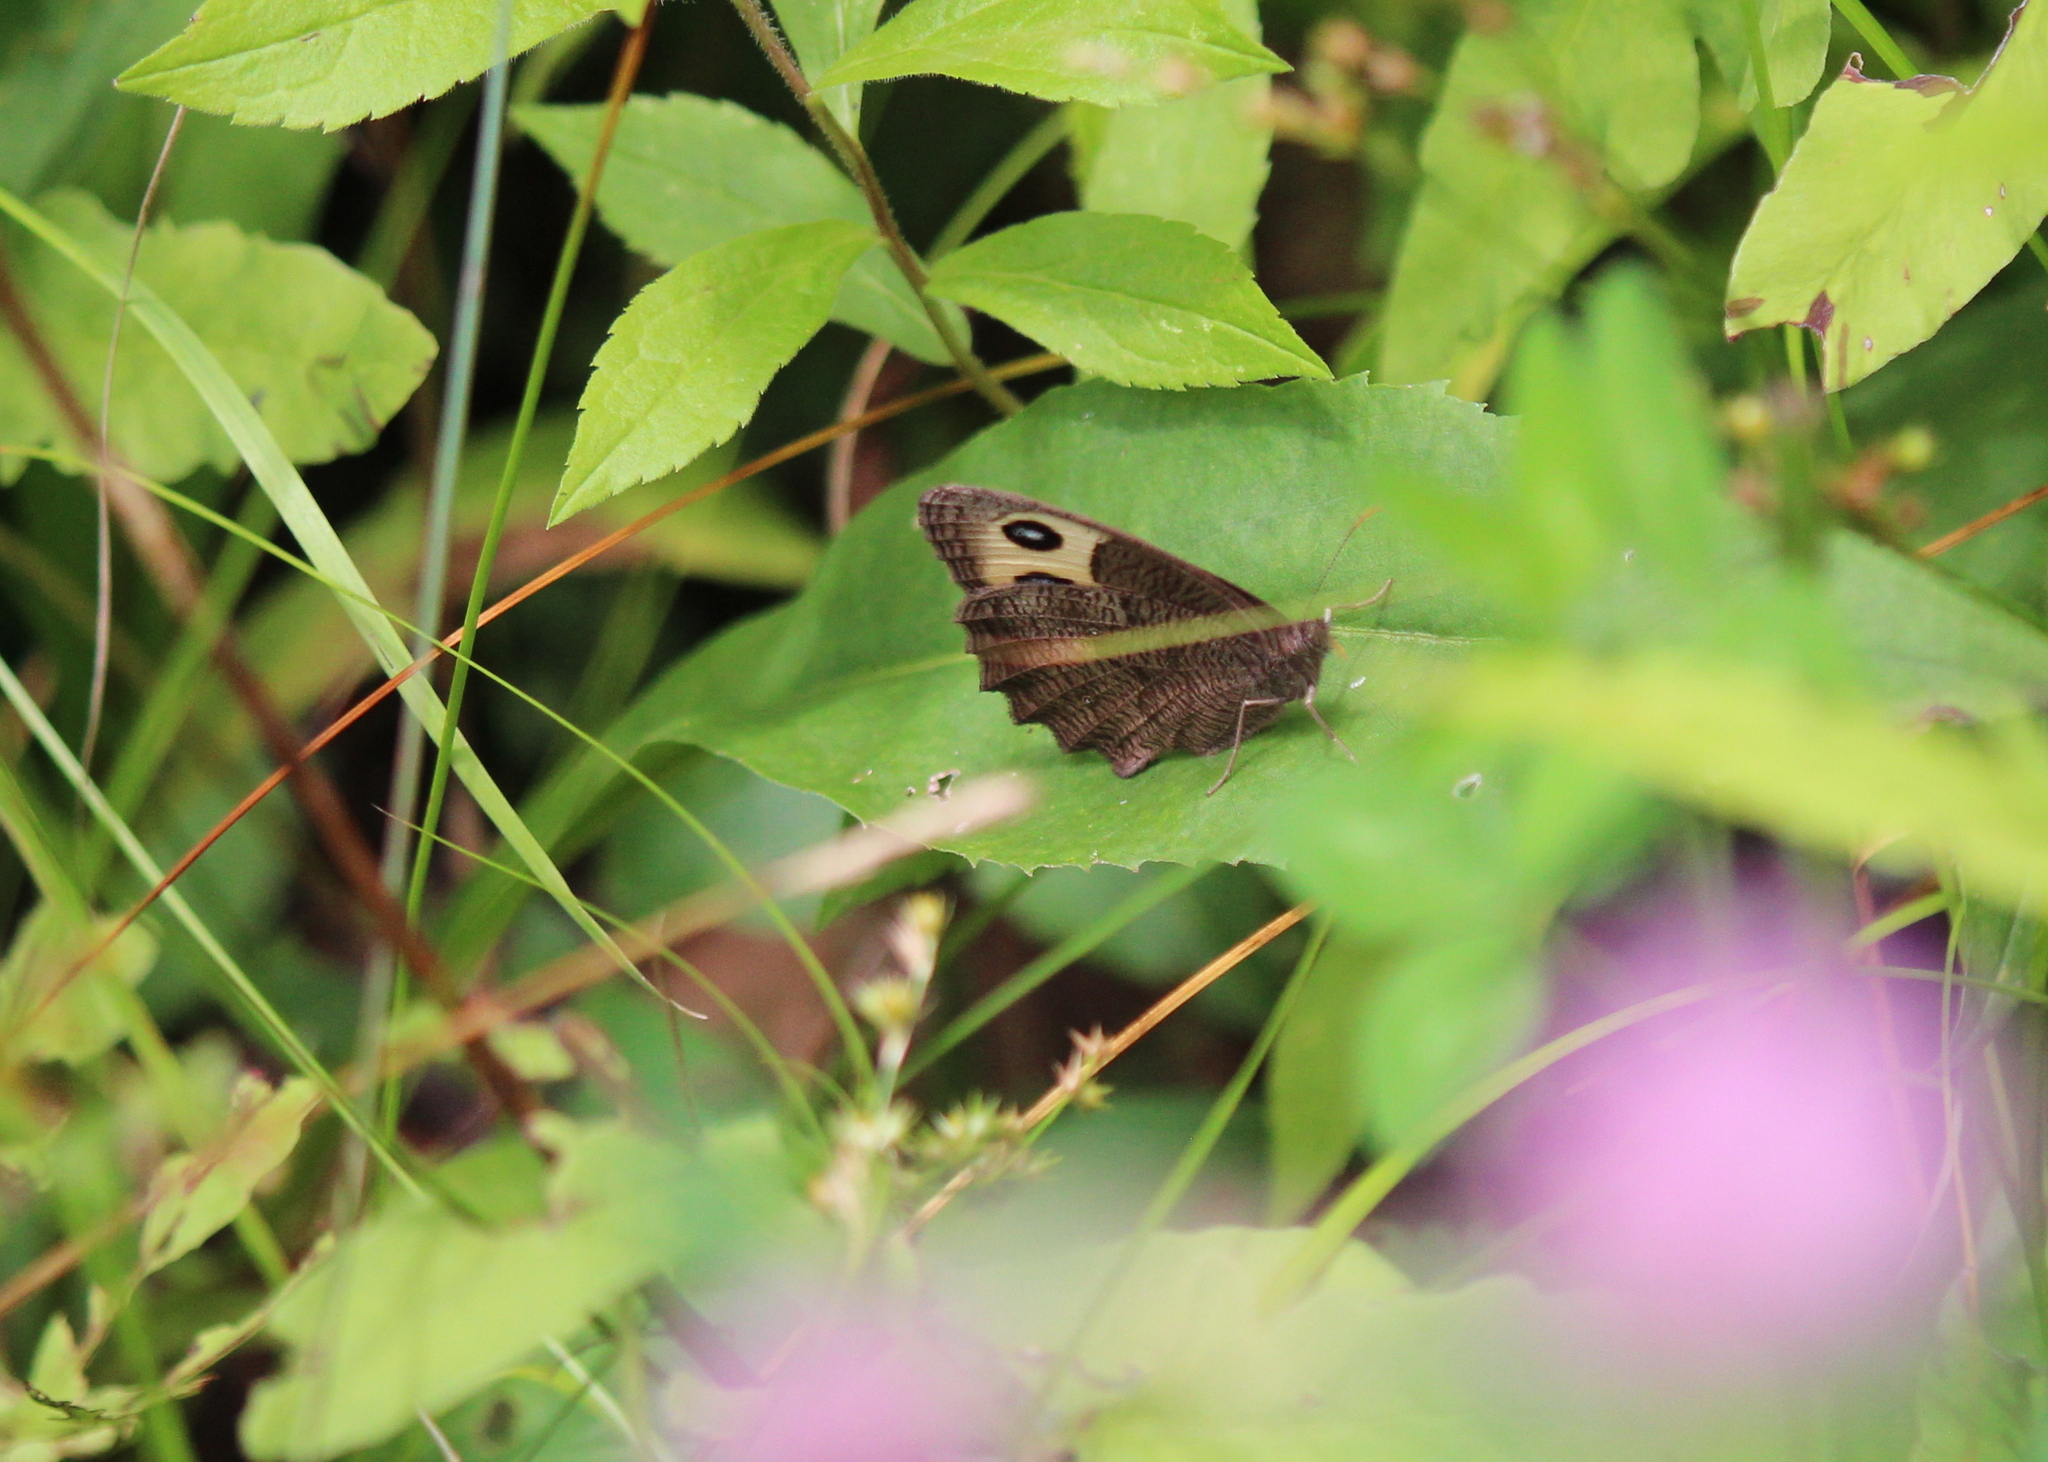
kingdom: Animalia
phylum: Arthropoda
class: Insecta
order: Lepidoptera
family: Nymphalidae
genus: Cercyonis
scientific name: Cercyonis pegala
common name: Common wood-nymph
